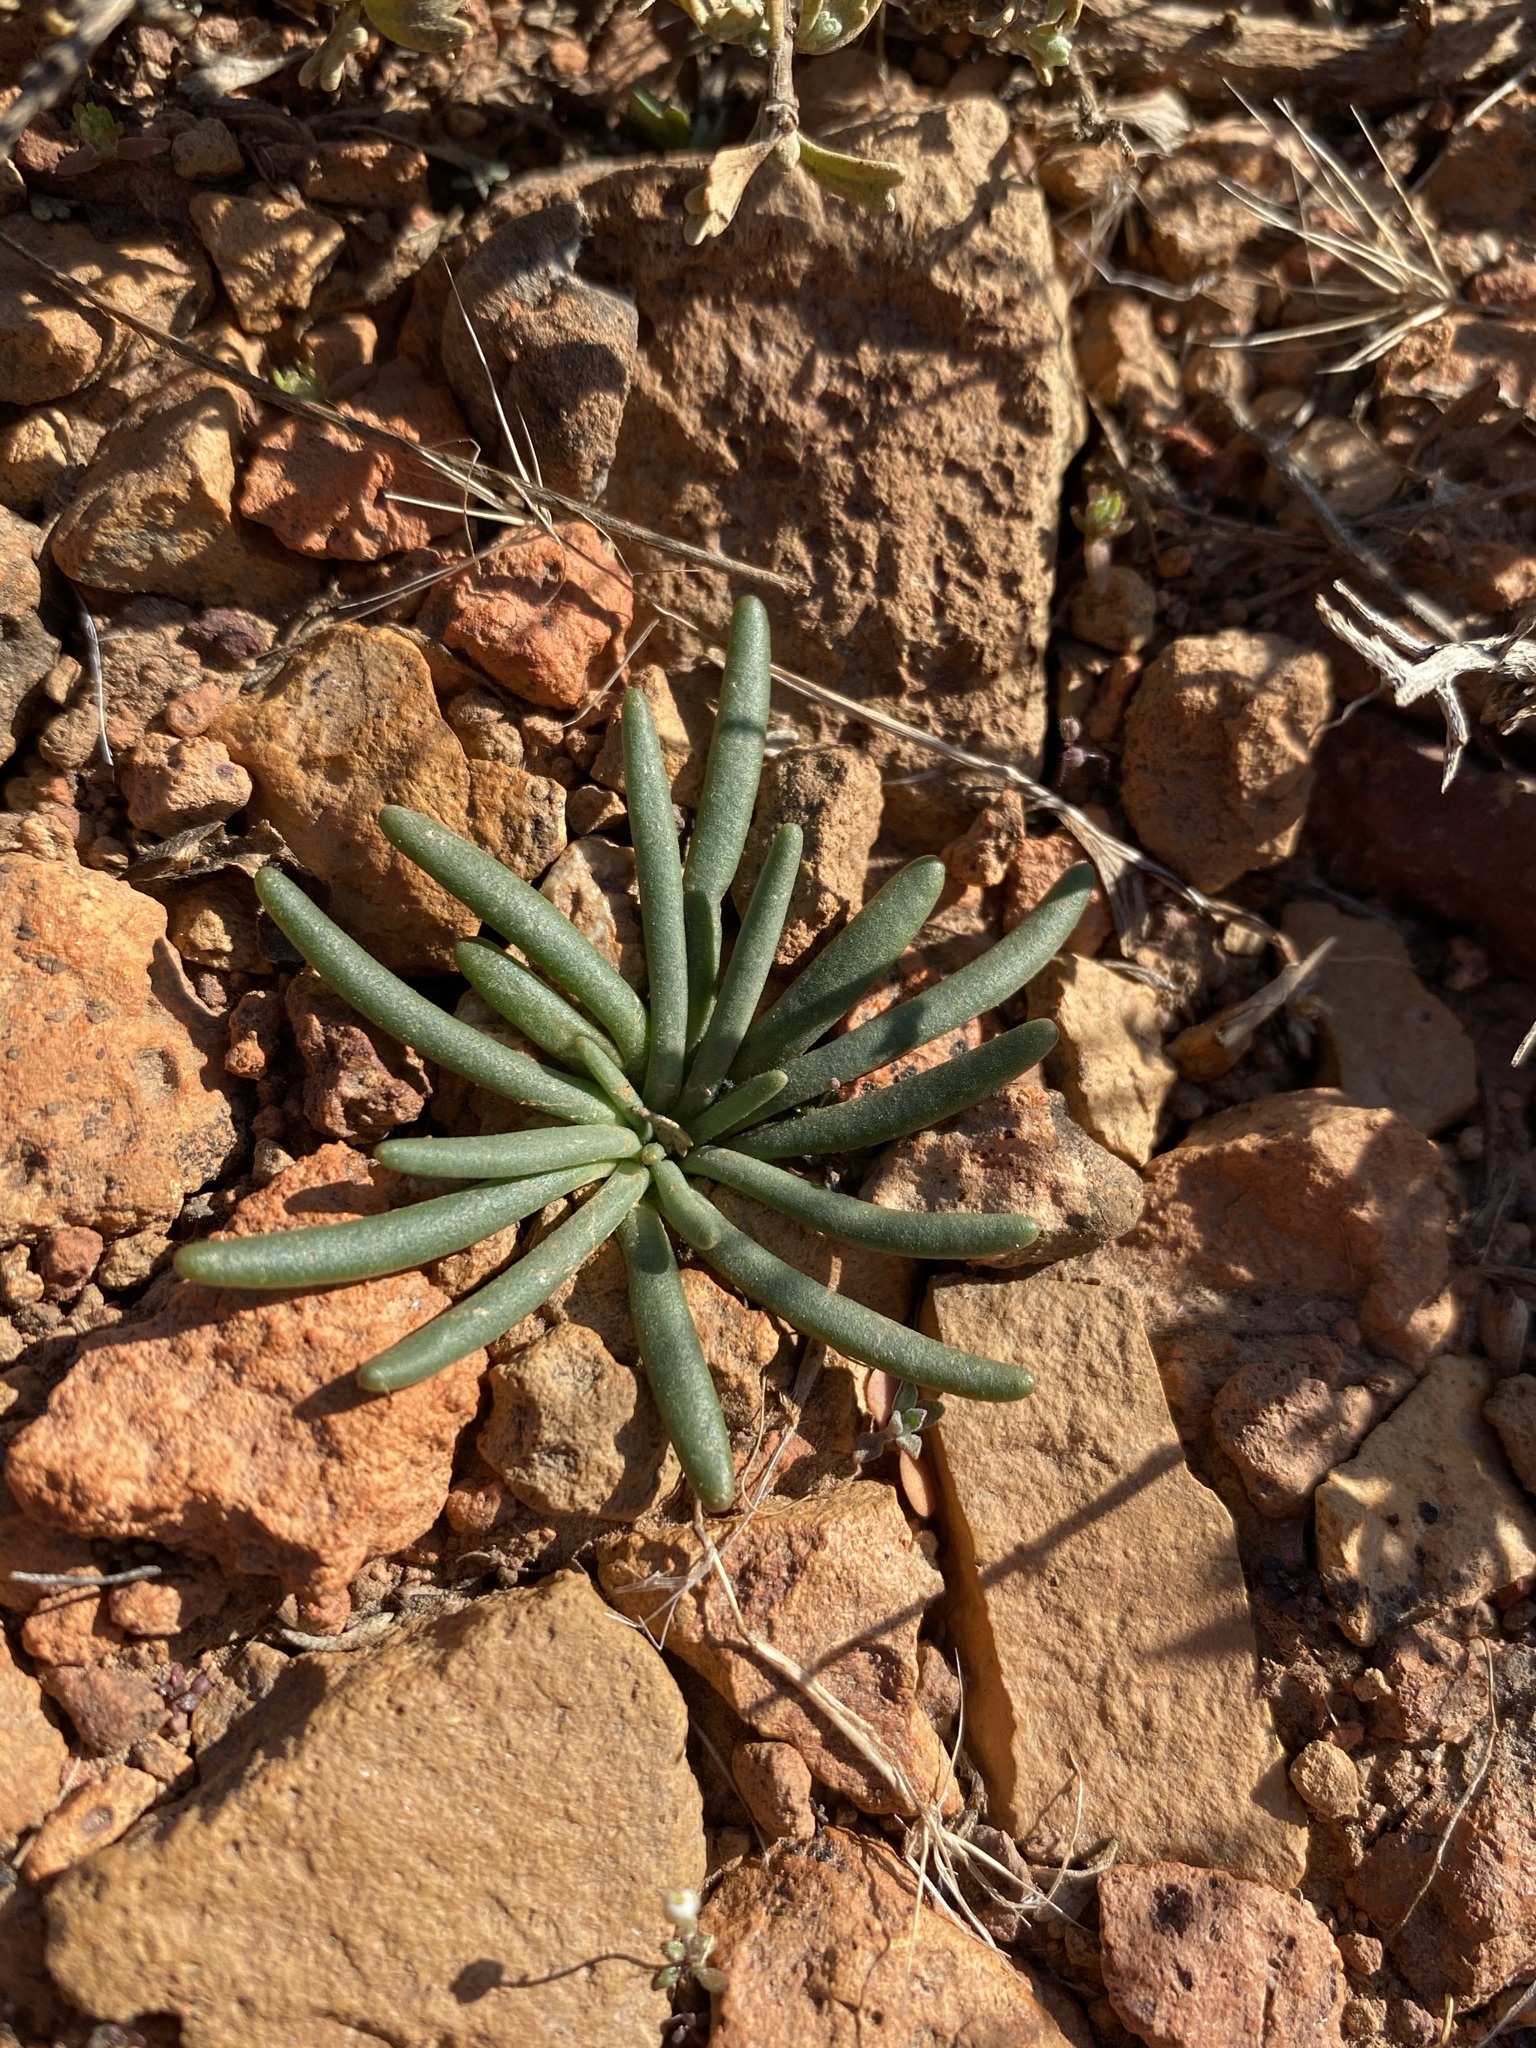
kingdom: Plantae
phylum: Tracheophyta
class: Magnoliopsida
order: Caryophyllales
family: Montiaceae
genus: Lewisia
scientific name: Lewisia rediviva
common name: Bitter-root
